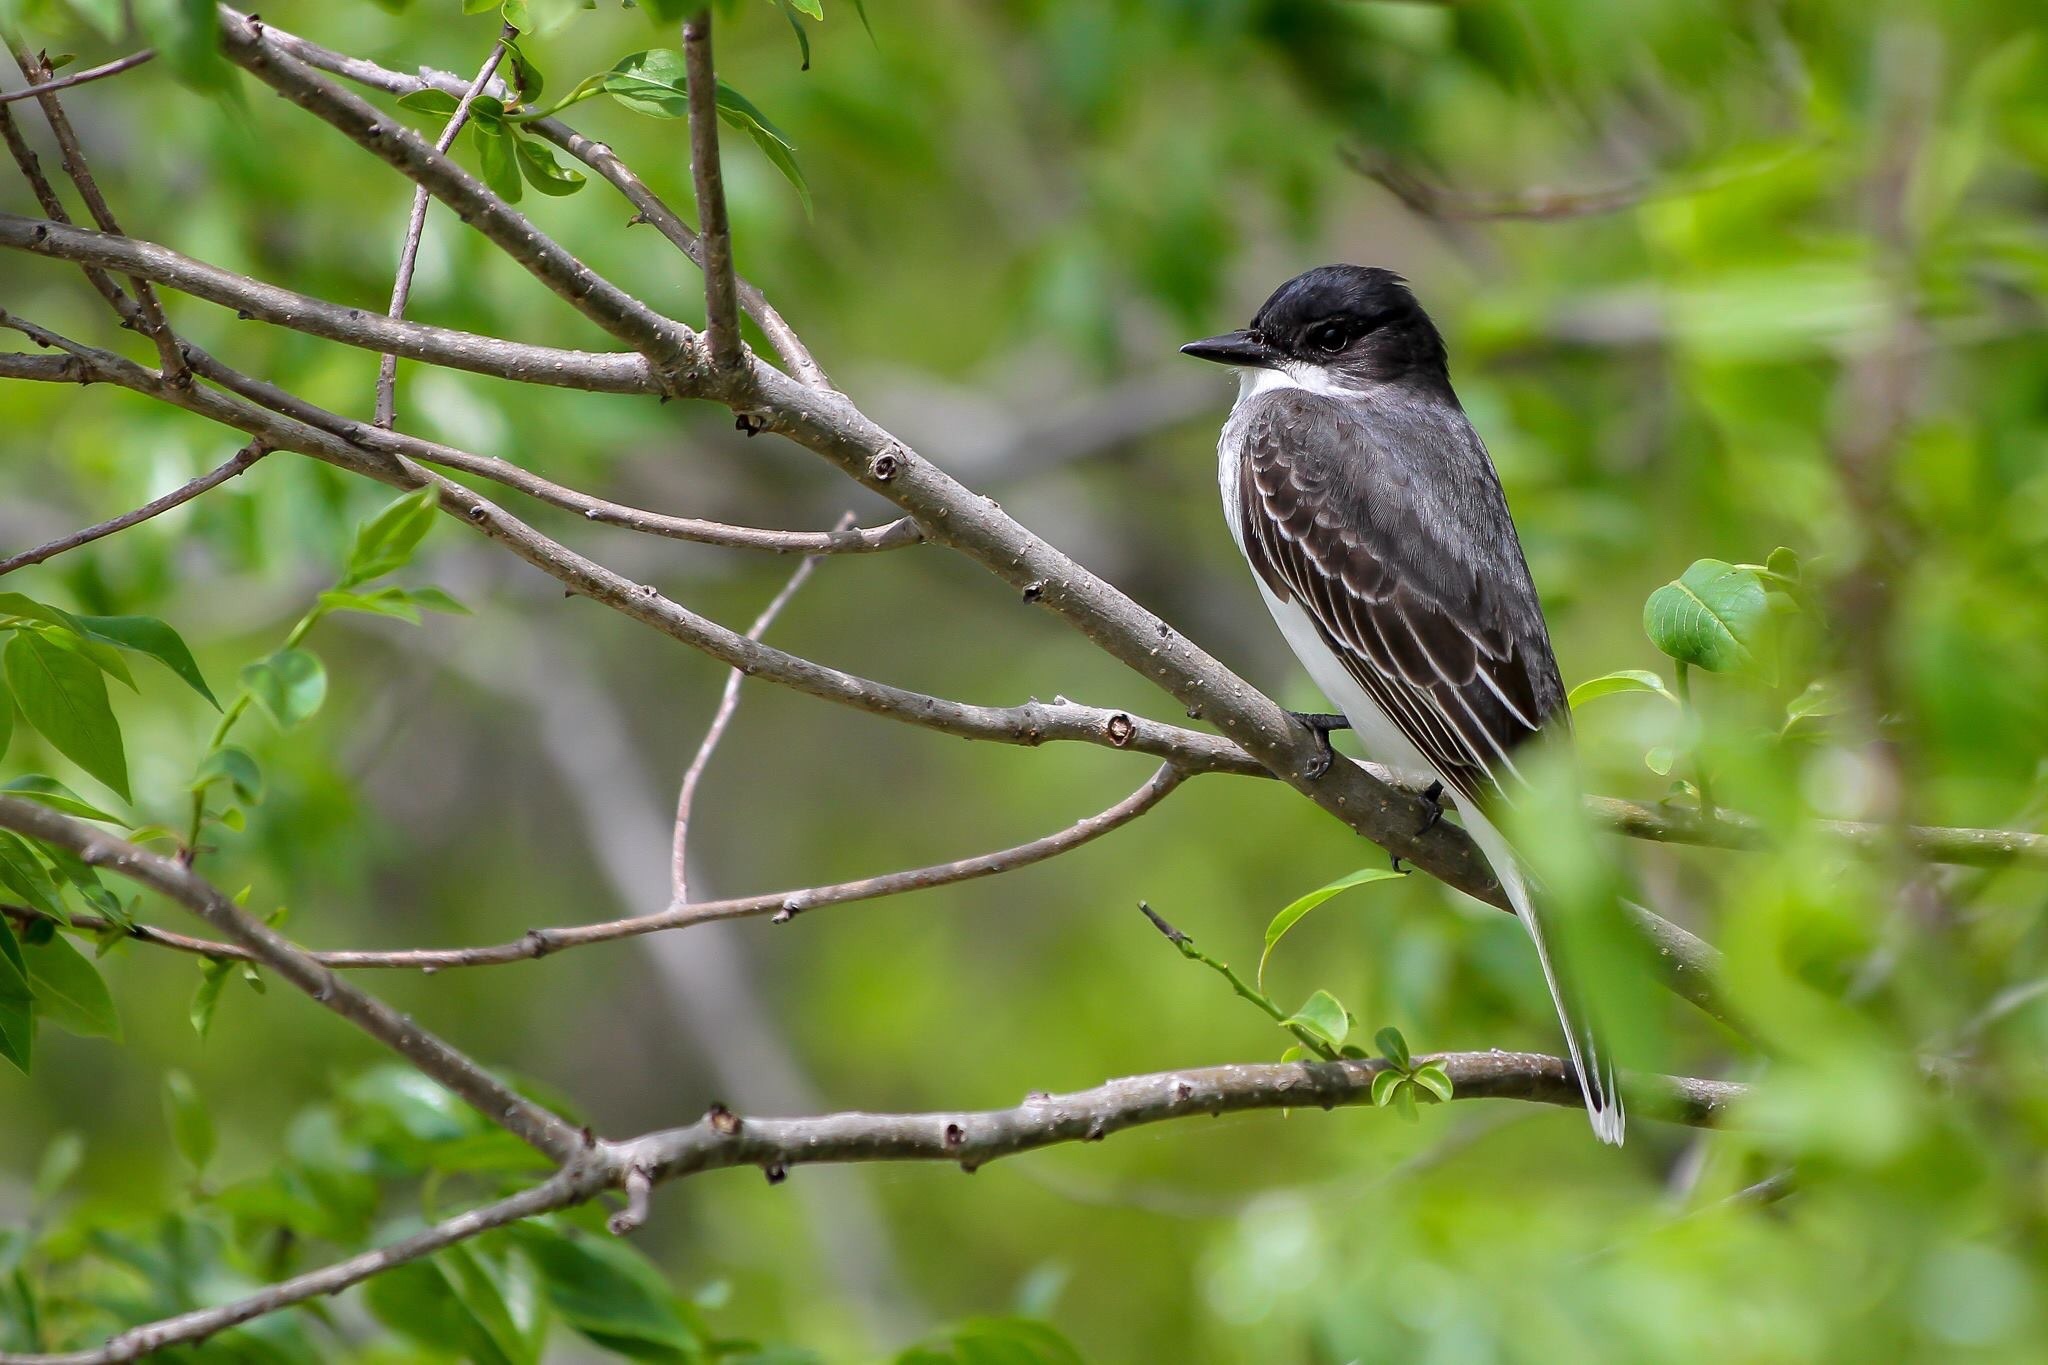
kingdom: Animalia
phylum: Chordata
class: Aves
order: Passeriformes
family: Tyrannidae
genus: Tyrannus
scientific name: Tyrannus tyrannus
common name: Eastern kingbird
